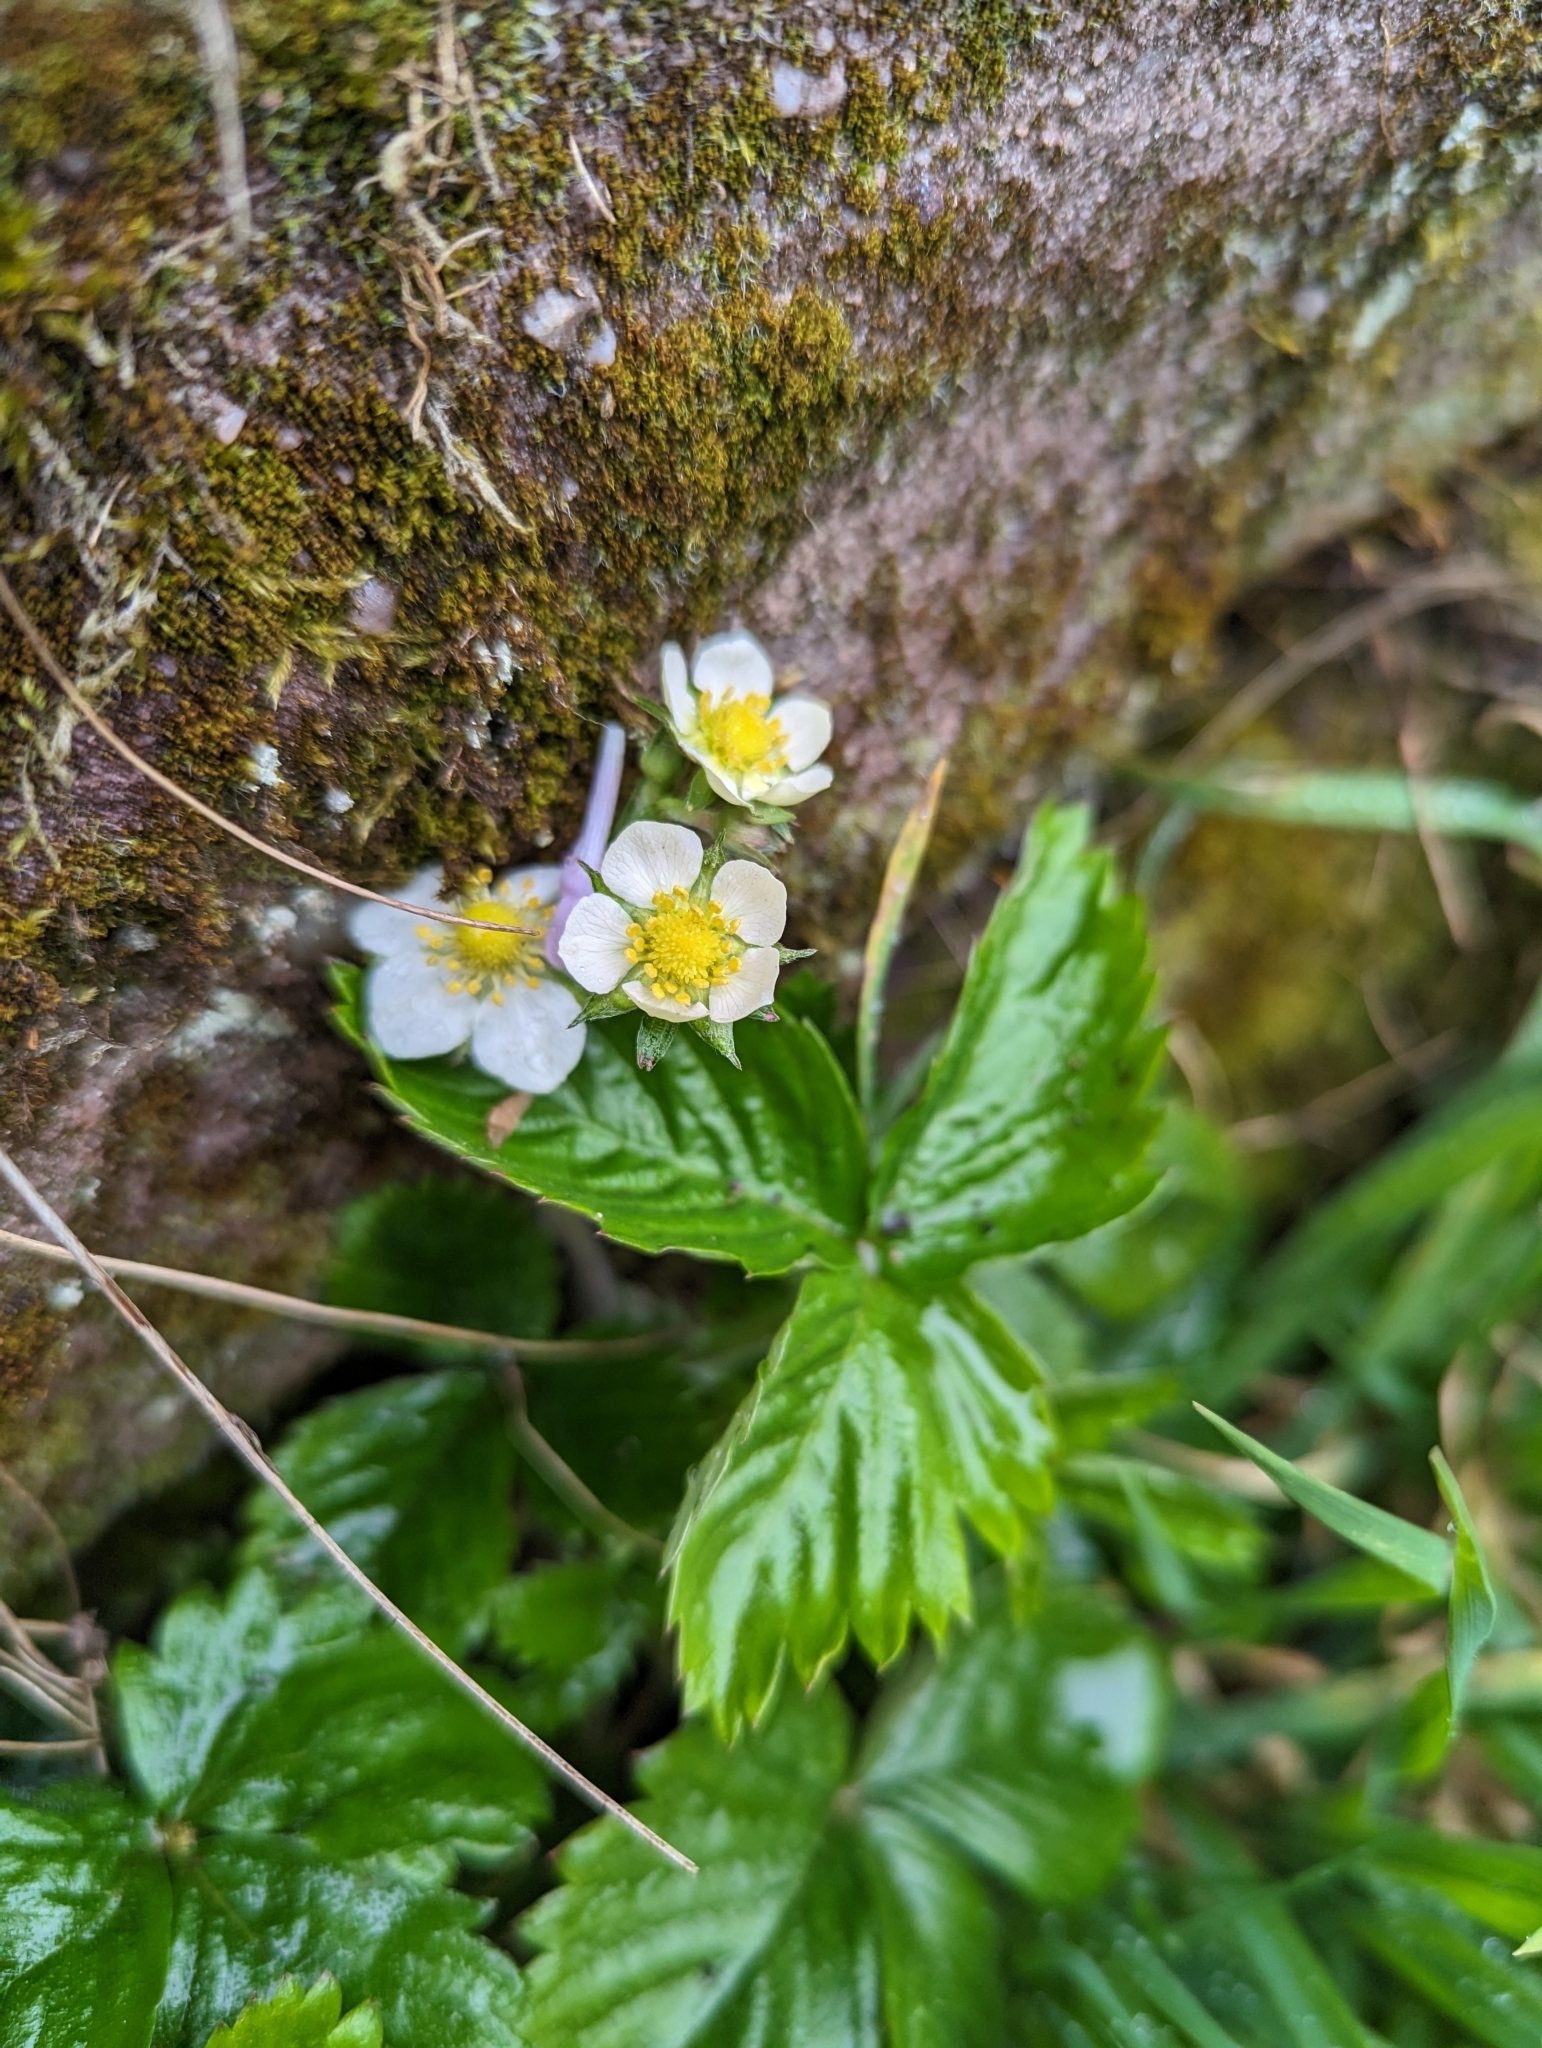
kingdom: Plantae
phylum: Tracheophyta
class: Magnoliopsida
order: Rosales
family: Rosaceae
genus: Fragaria
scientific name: Fragaria vesca
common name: Wild strawberry
